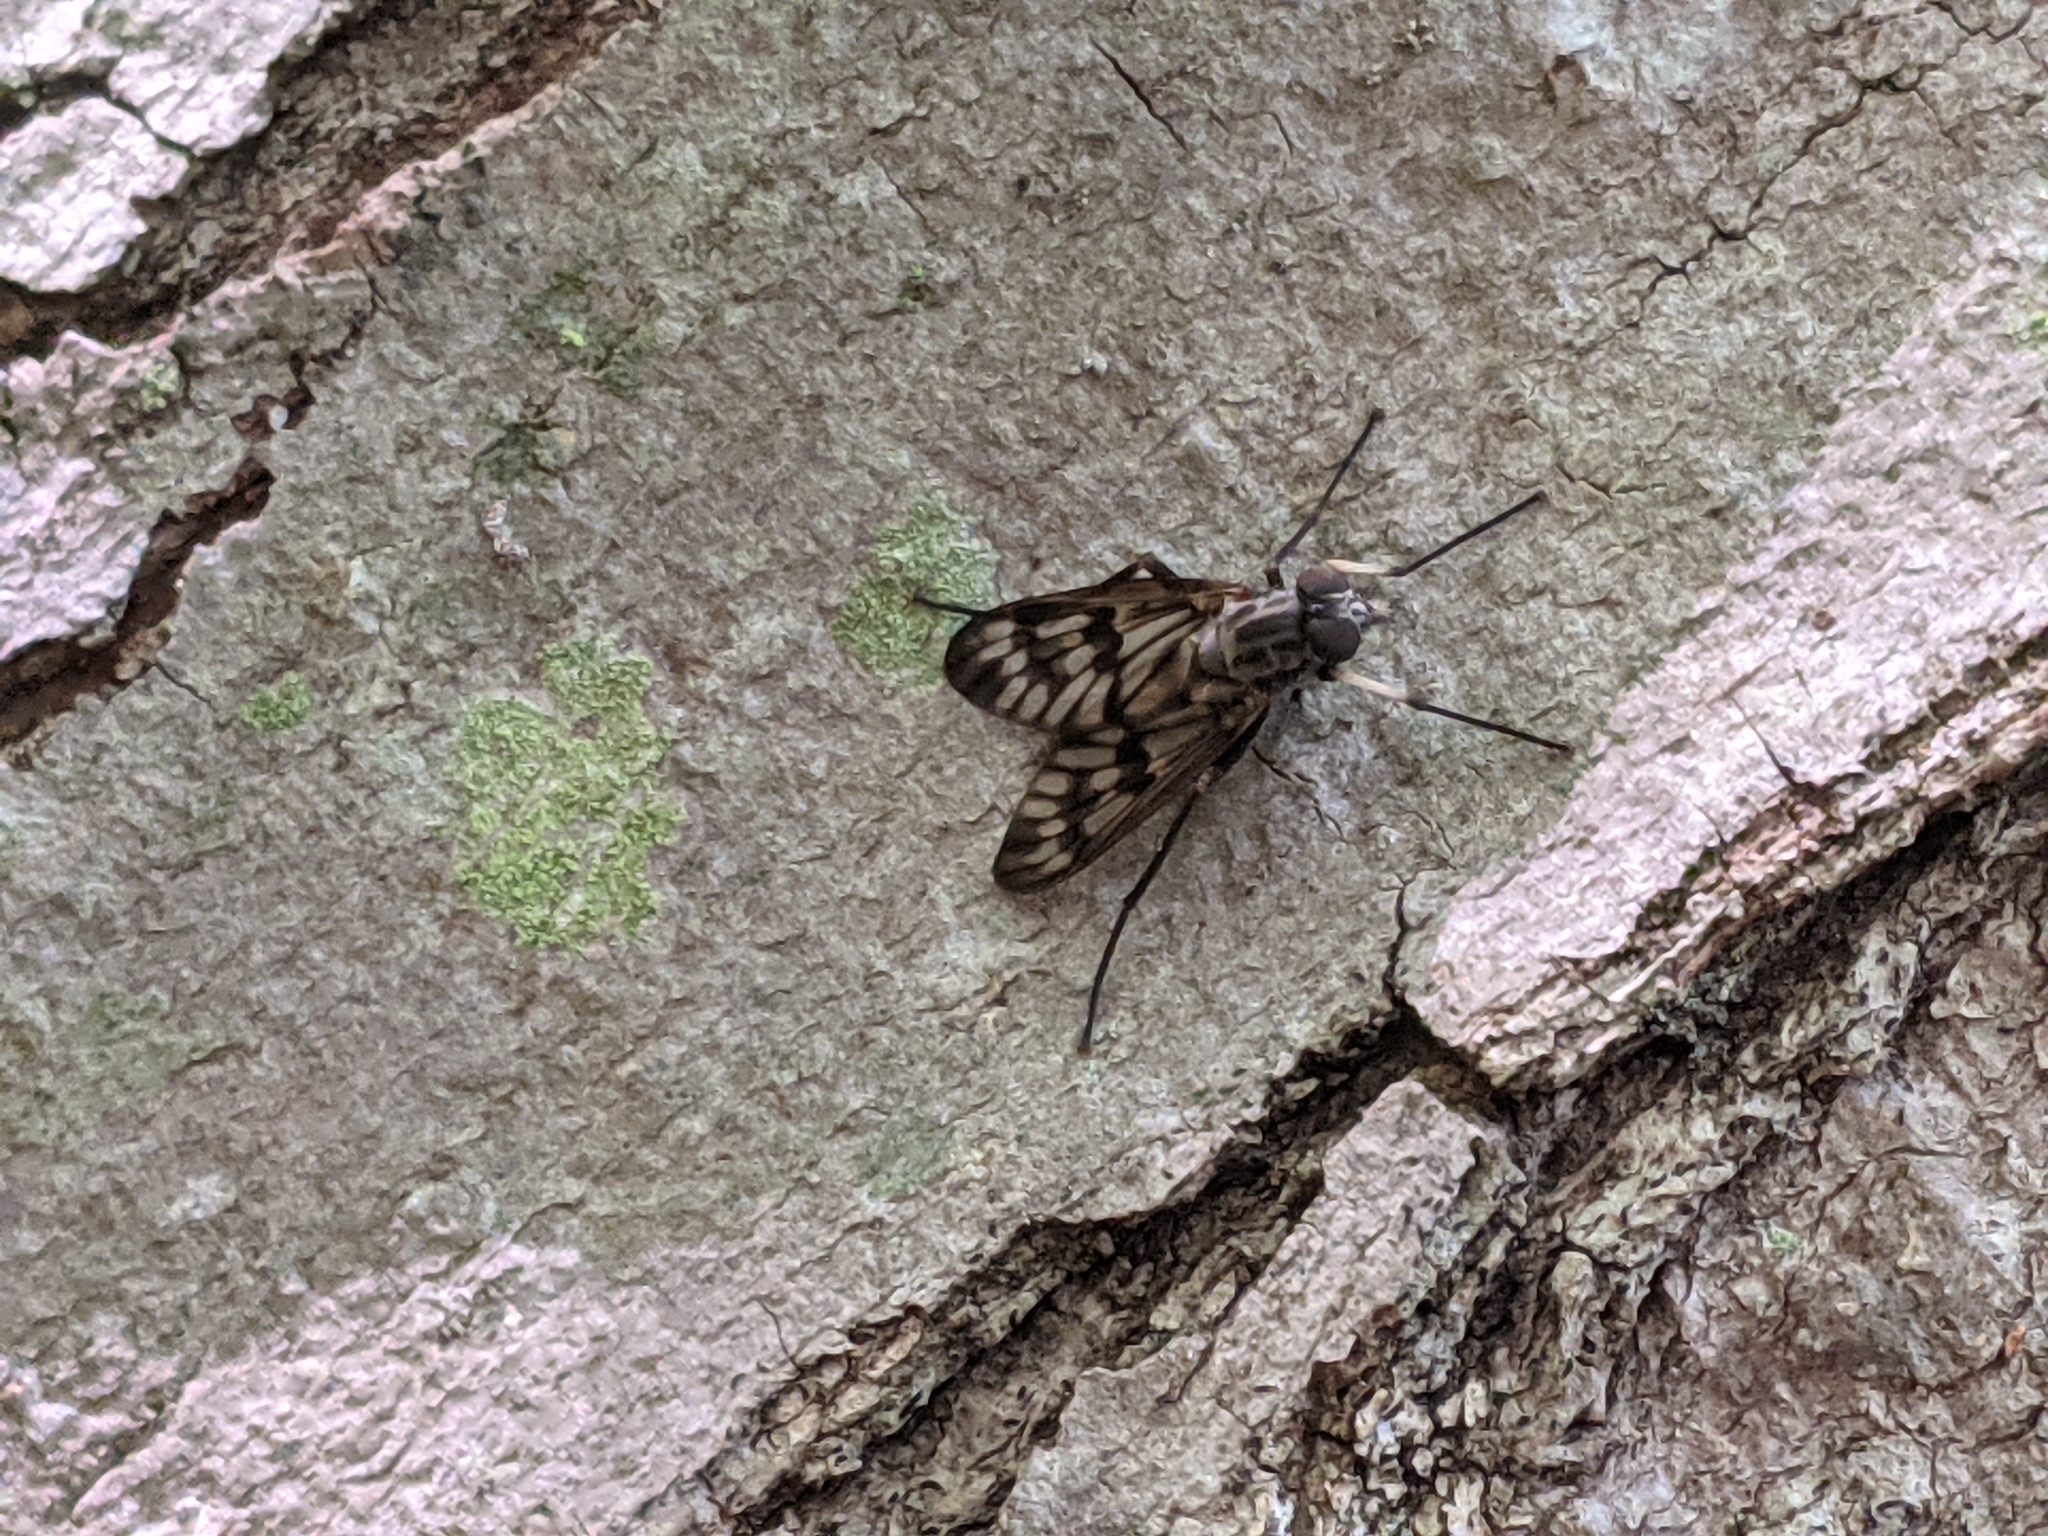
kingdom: Animalia
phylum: Arthropoda
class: Insecta
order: Diptera
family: Rhagionidae
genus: Rhagio
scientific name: Rhagio mystaceus
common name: Common snipe fly
